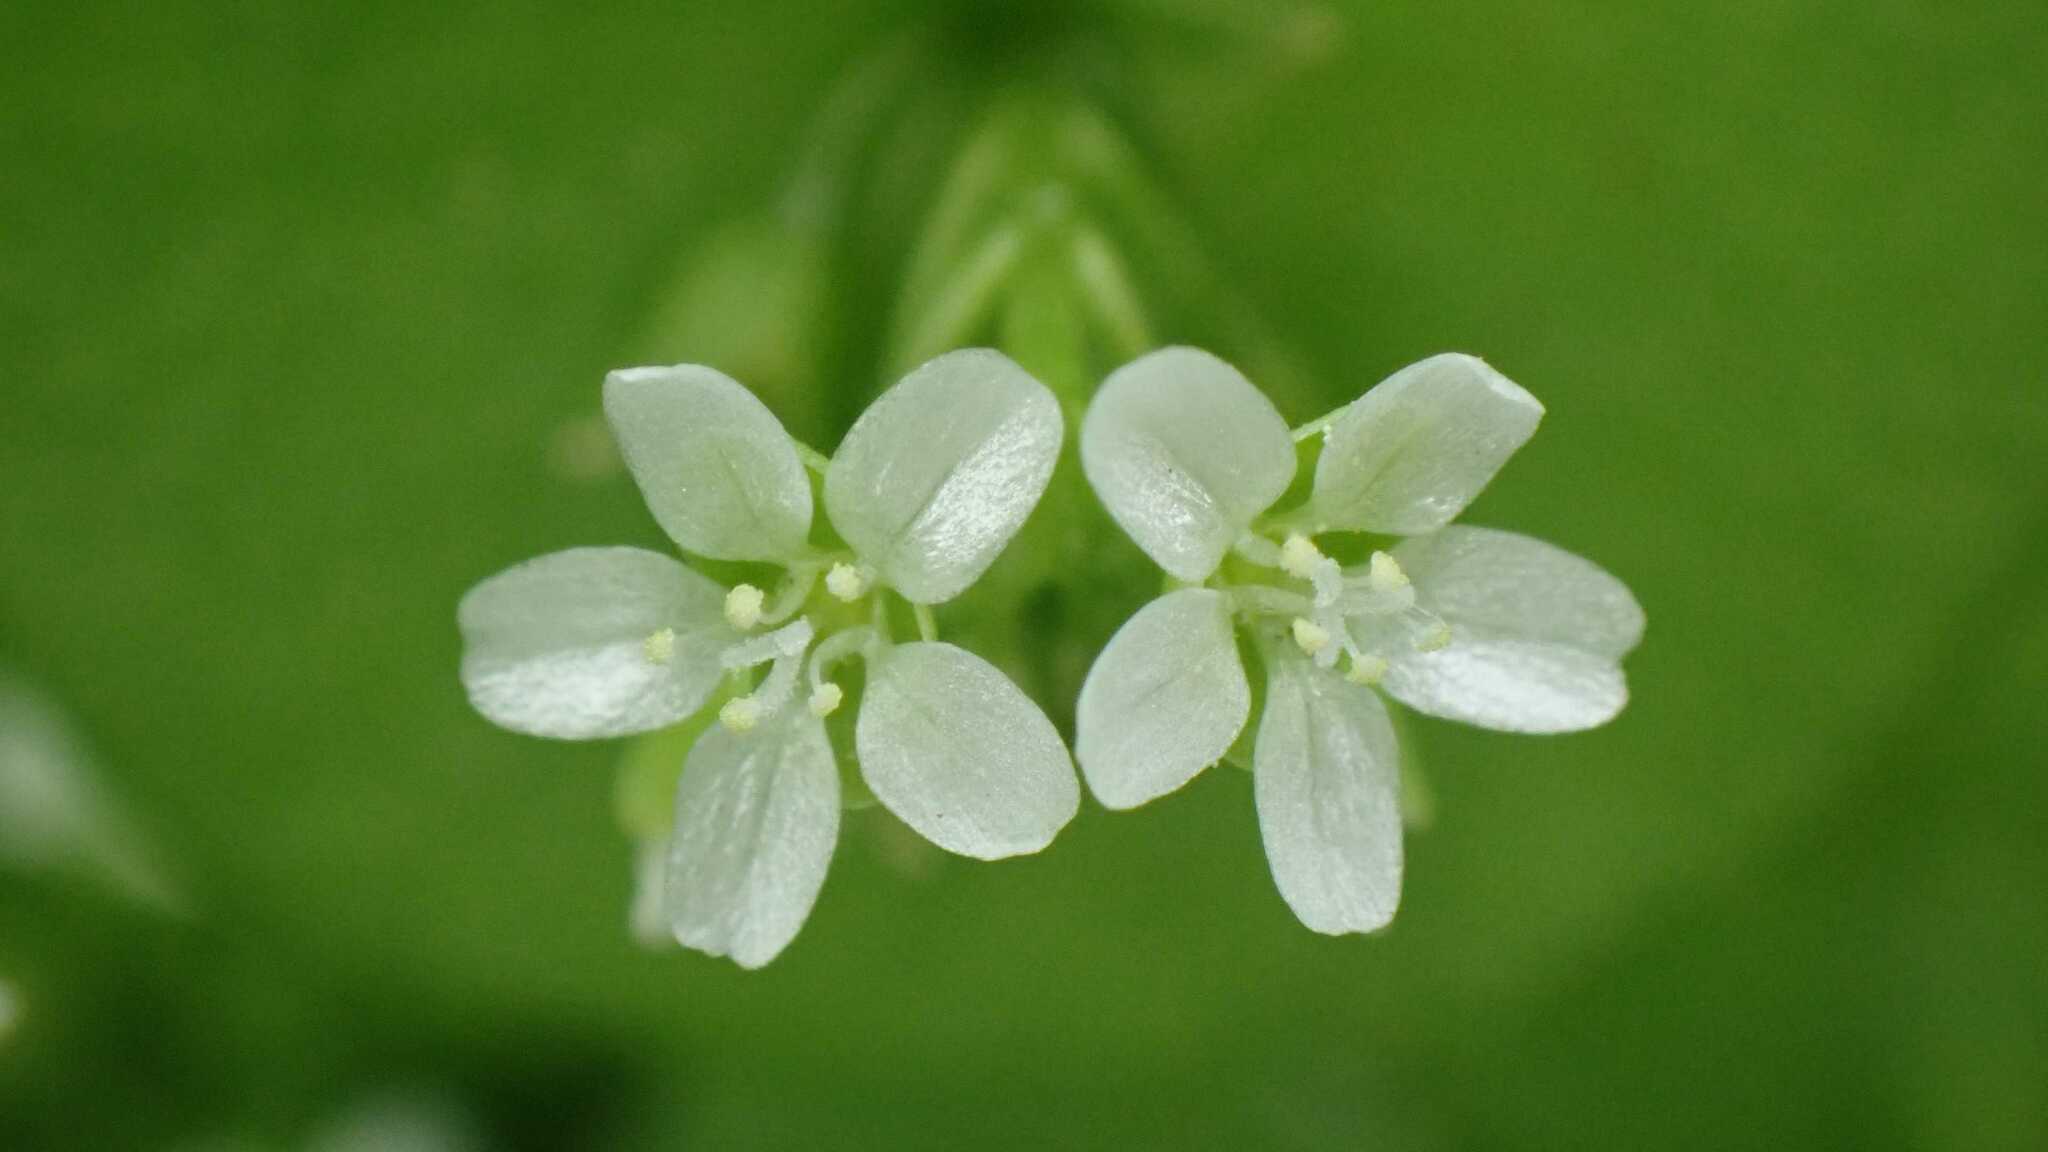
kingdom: Plantae
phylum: Tracheophyta
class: Magnoliopsida
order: Caryophyllales
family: Montiaceae
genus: Claytonia
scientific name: Claytonia perfoliata
